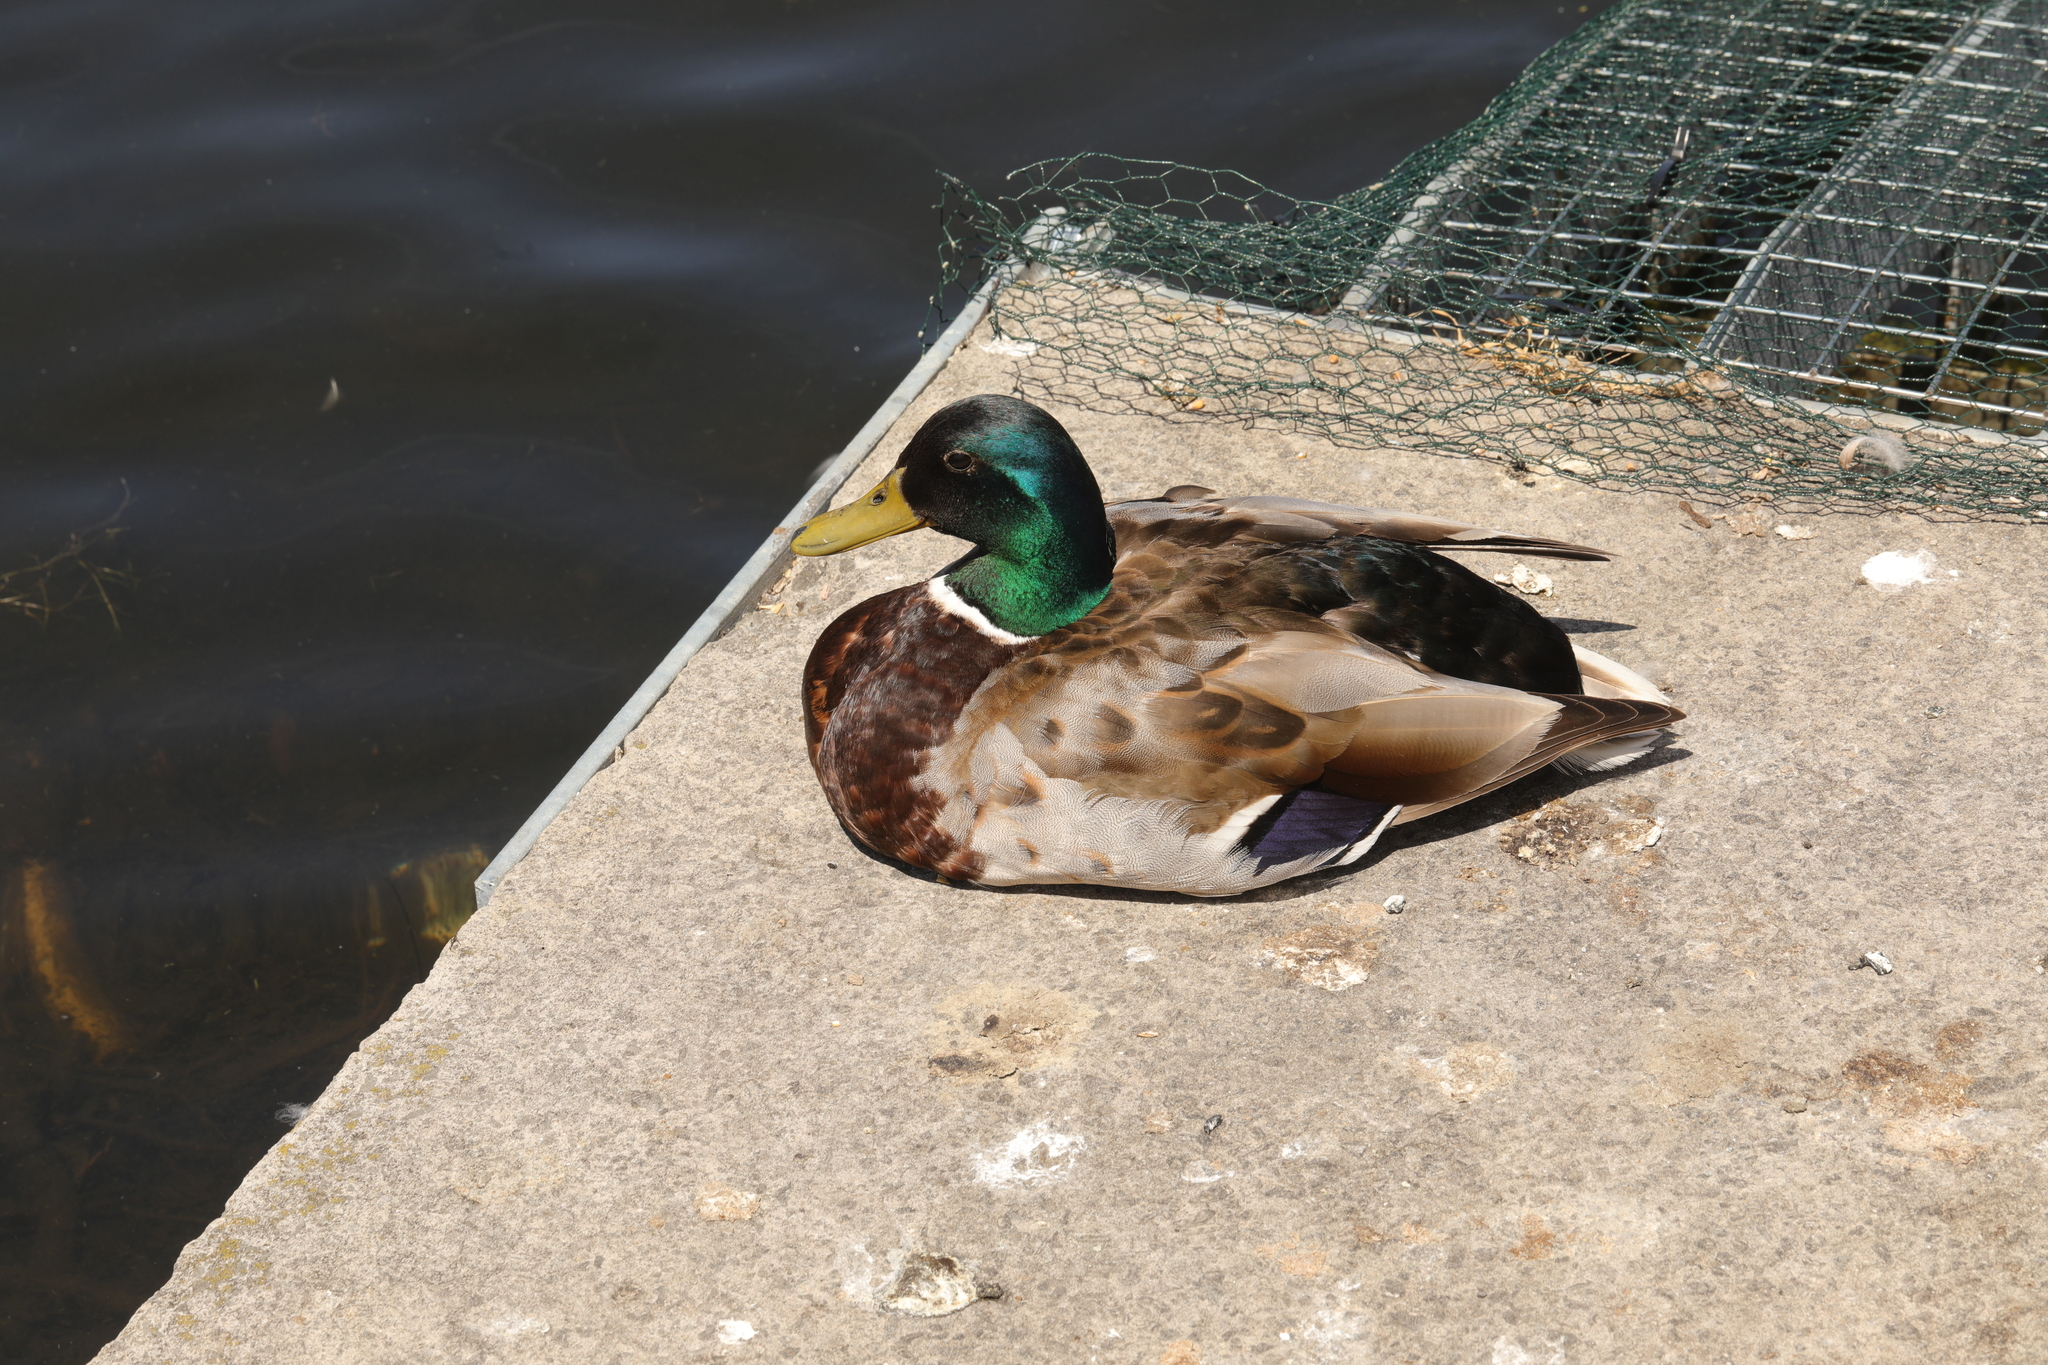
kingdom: Animalia
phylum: Chordata
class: Aves
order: Anseriformes
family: Anatidae
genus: Anas
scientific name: Anas platyrhynchos
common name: Mallard
